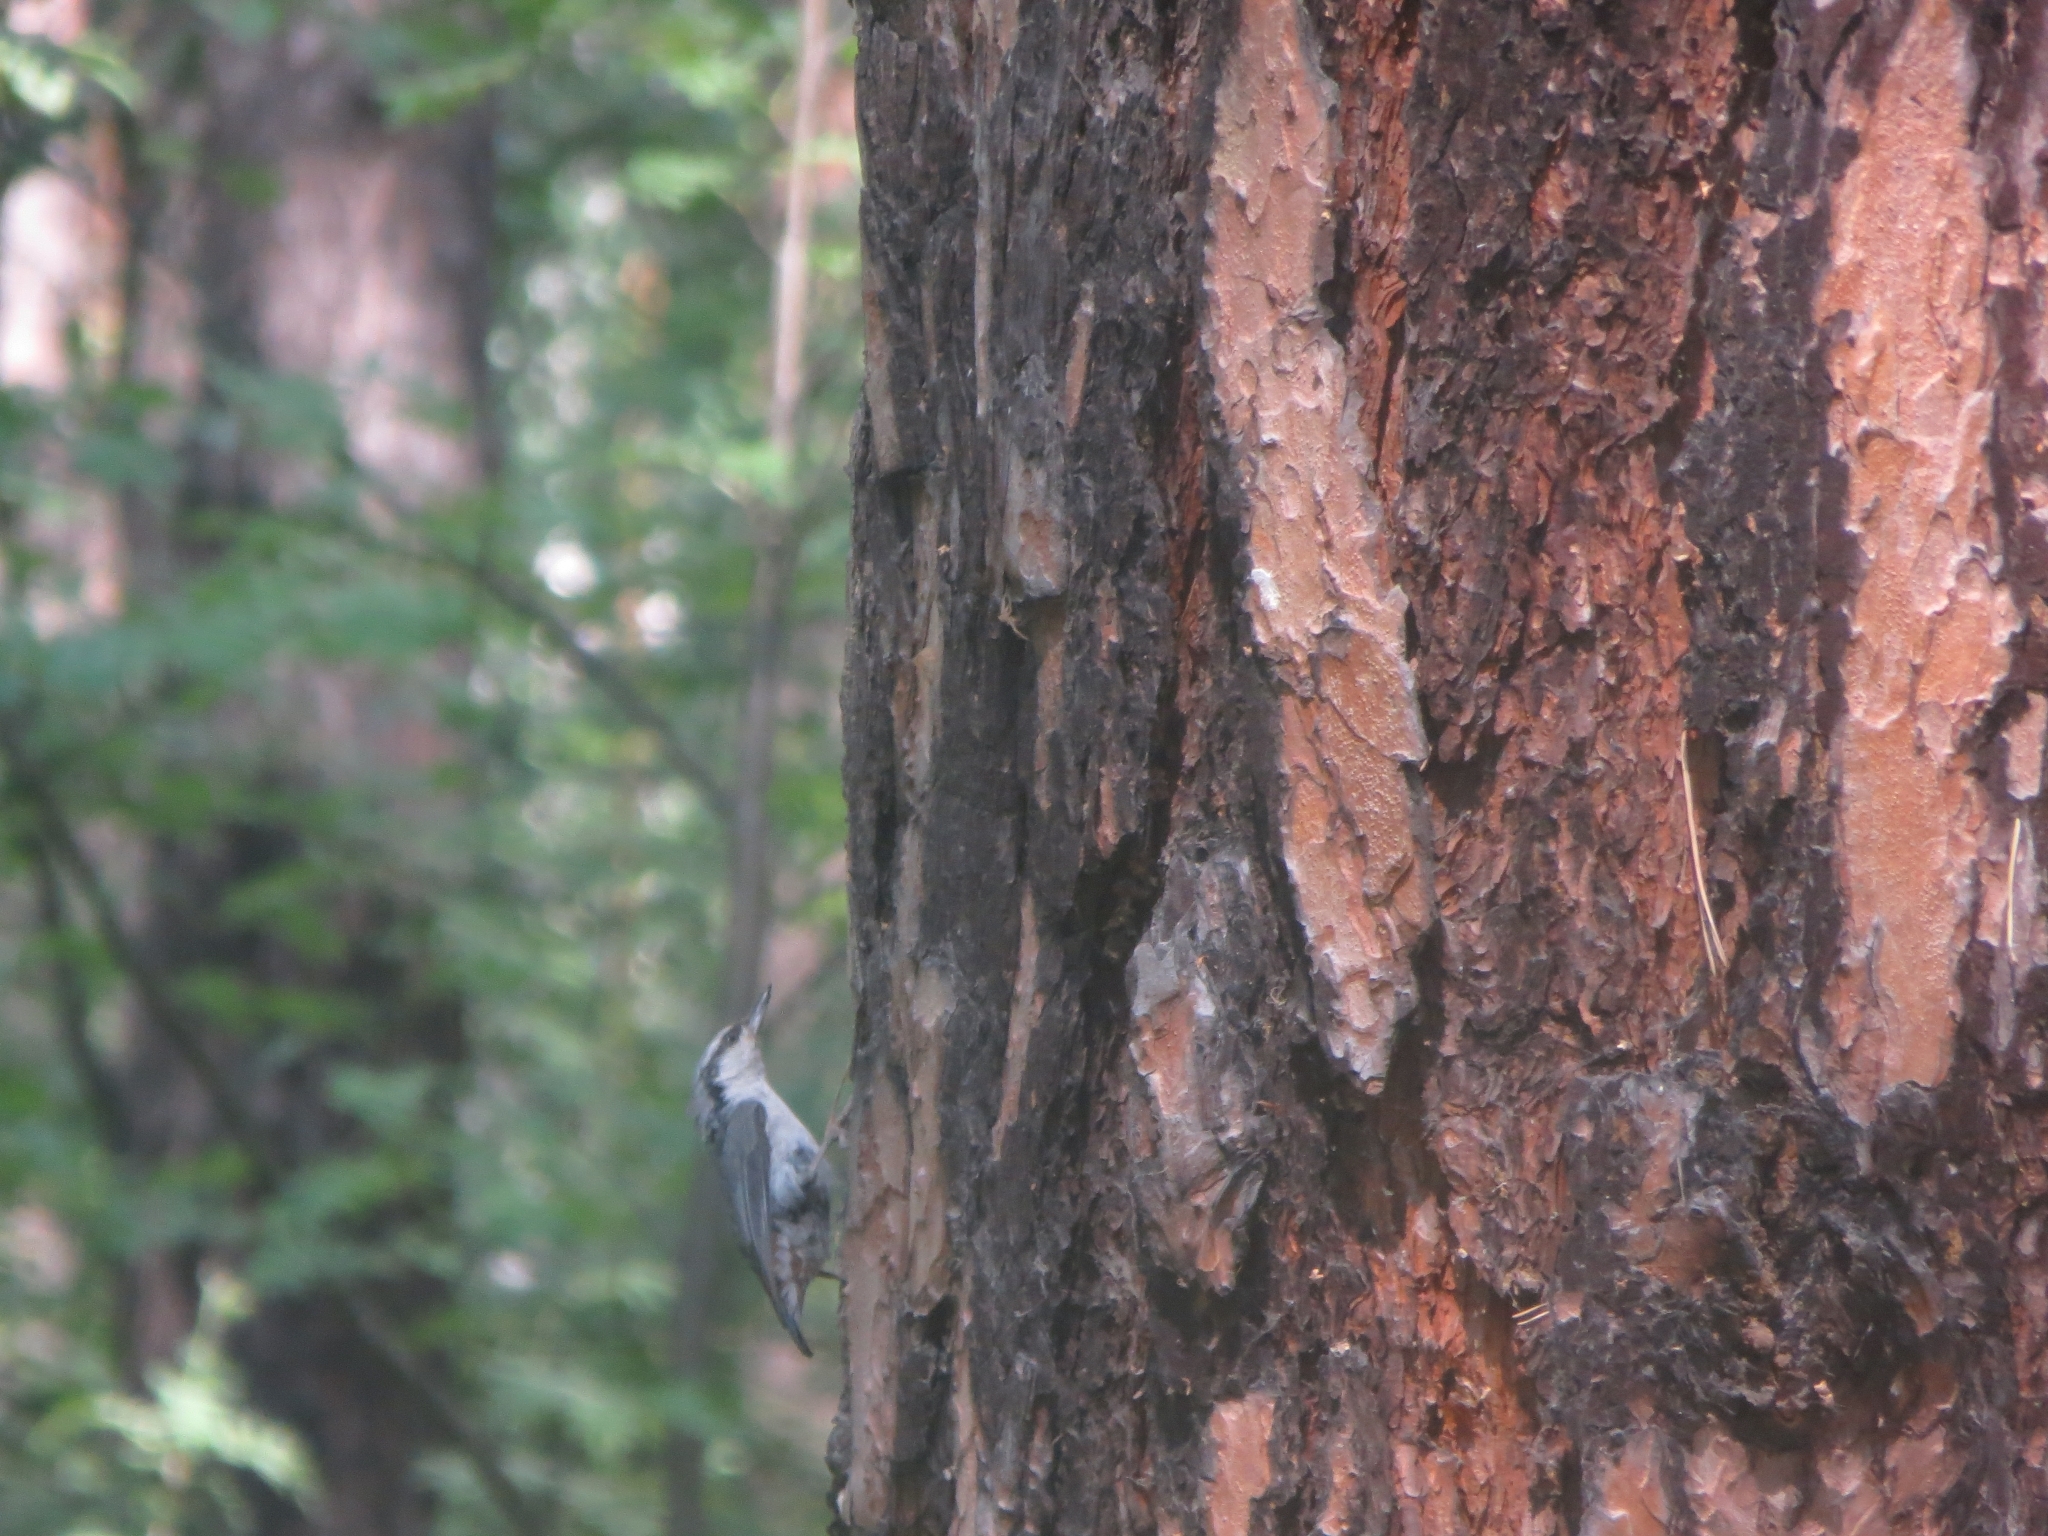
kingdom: Animalia
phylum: Chordata
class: Aves
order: Passeriformes
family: Sittidae
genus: Sitta
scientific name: Sitta europaea
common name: Eurasian nuthatch
